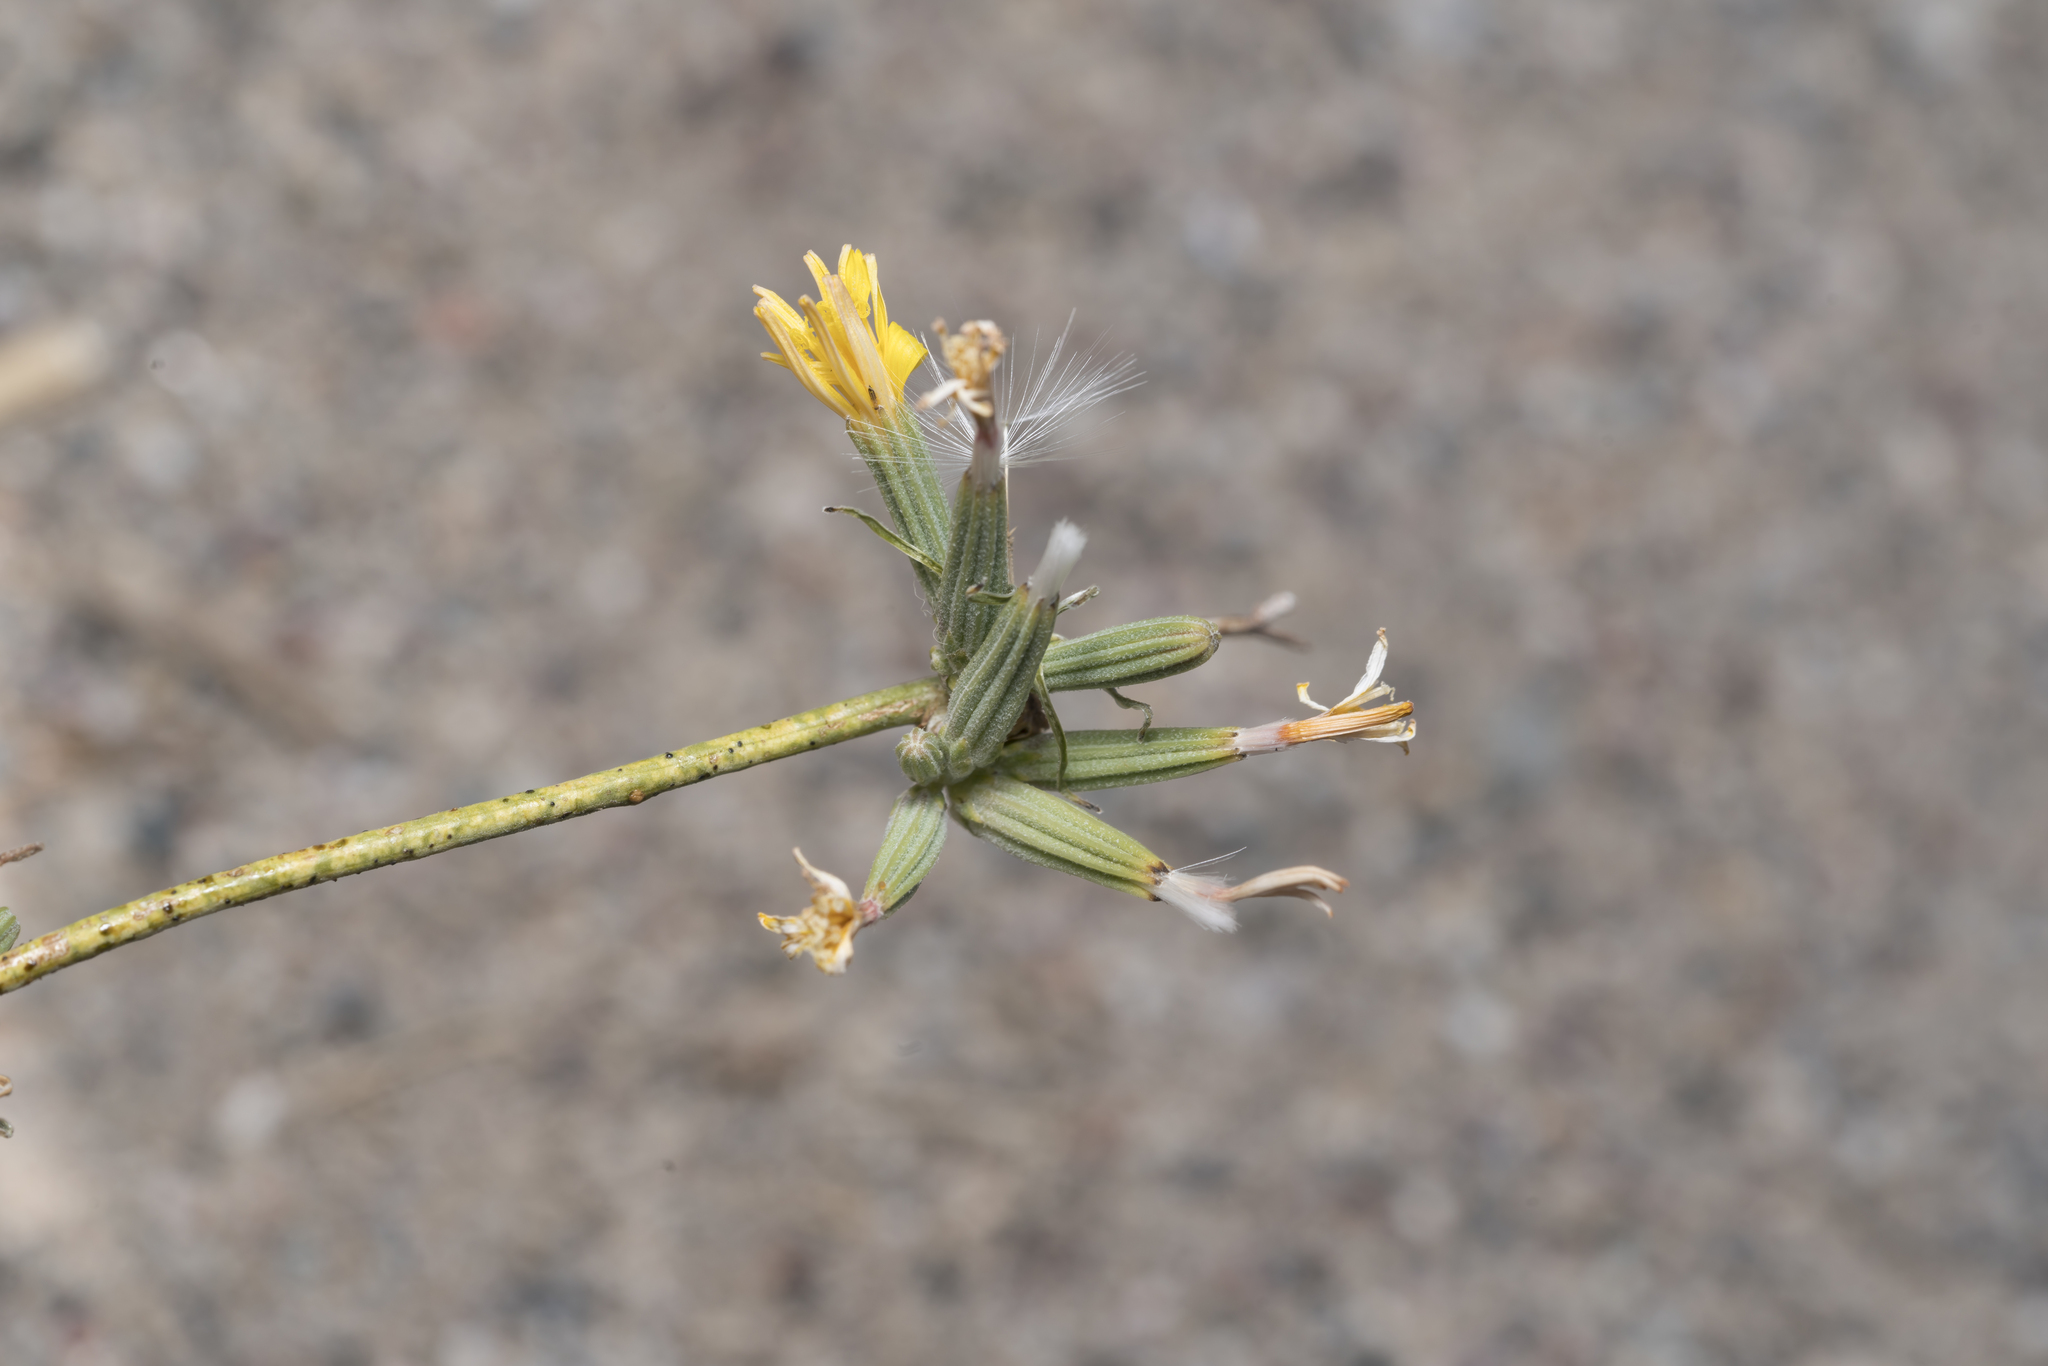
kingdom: Plantae
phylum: Tracheophyta
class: Magnoliopsida
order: Asterales
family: Asteraceae
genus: Chondrilla
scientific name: Chondrilla juncea
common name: Skeleton weed
